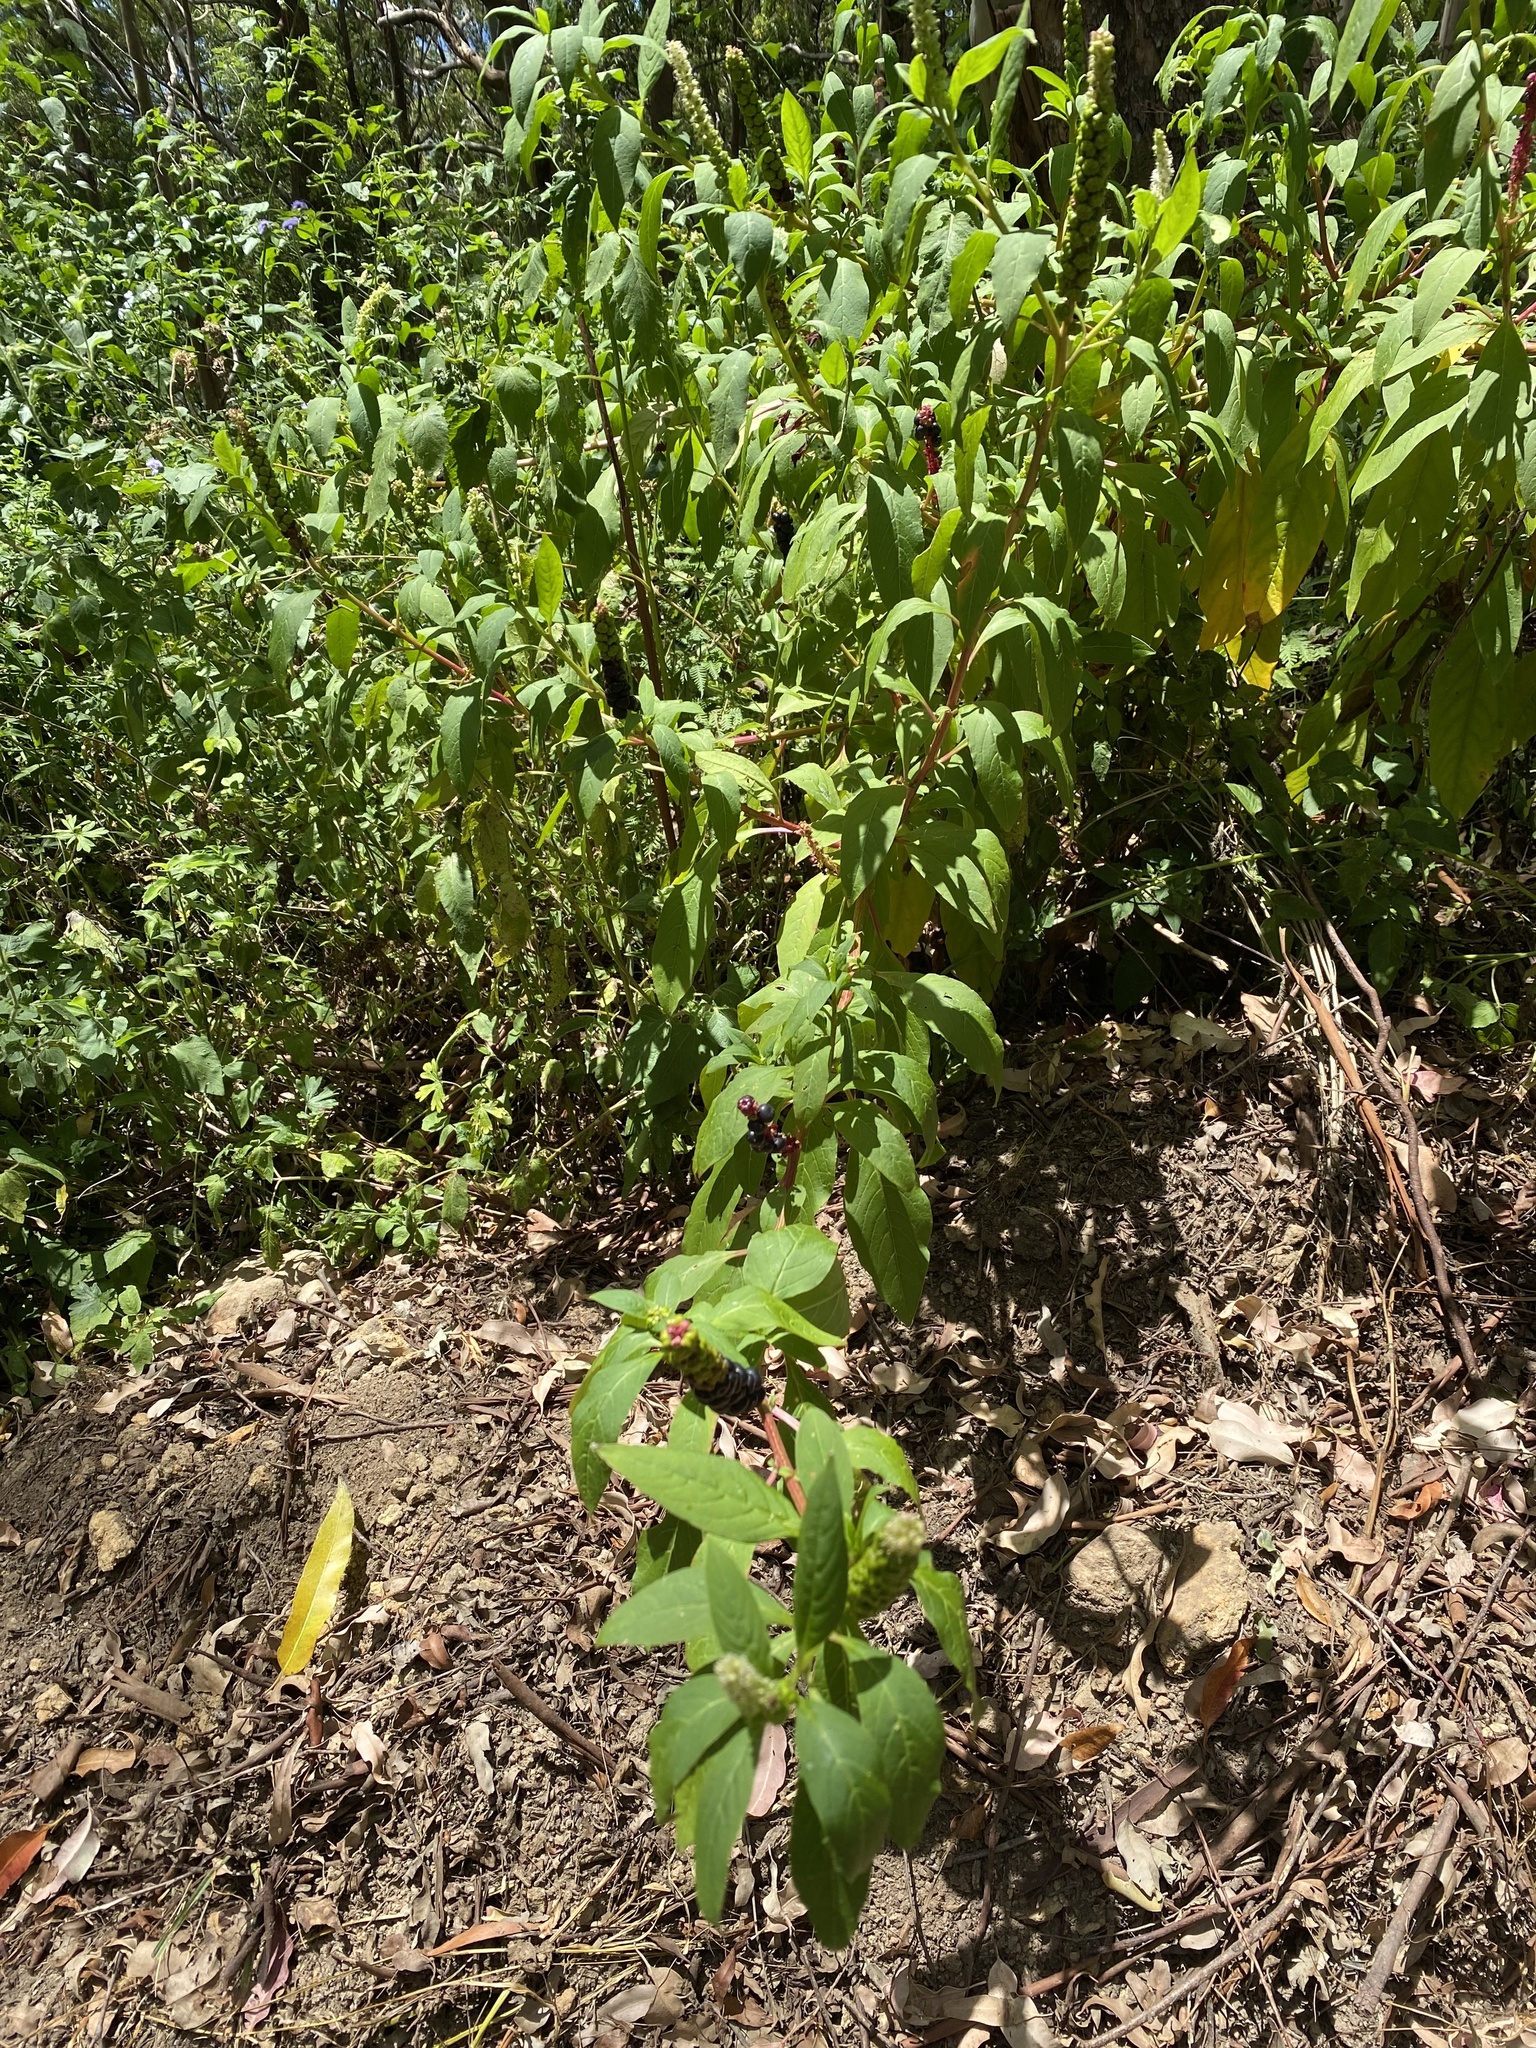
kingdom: Plantae
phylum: Tracheophyta
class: Magnoliopsida
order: Caryophyllales
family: Phytolaccaceae
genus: Phytolacca
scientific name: Phytolacca icosandra
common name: Button pokeweed
